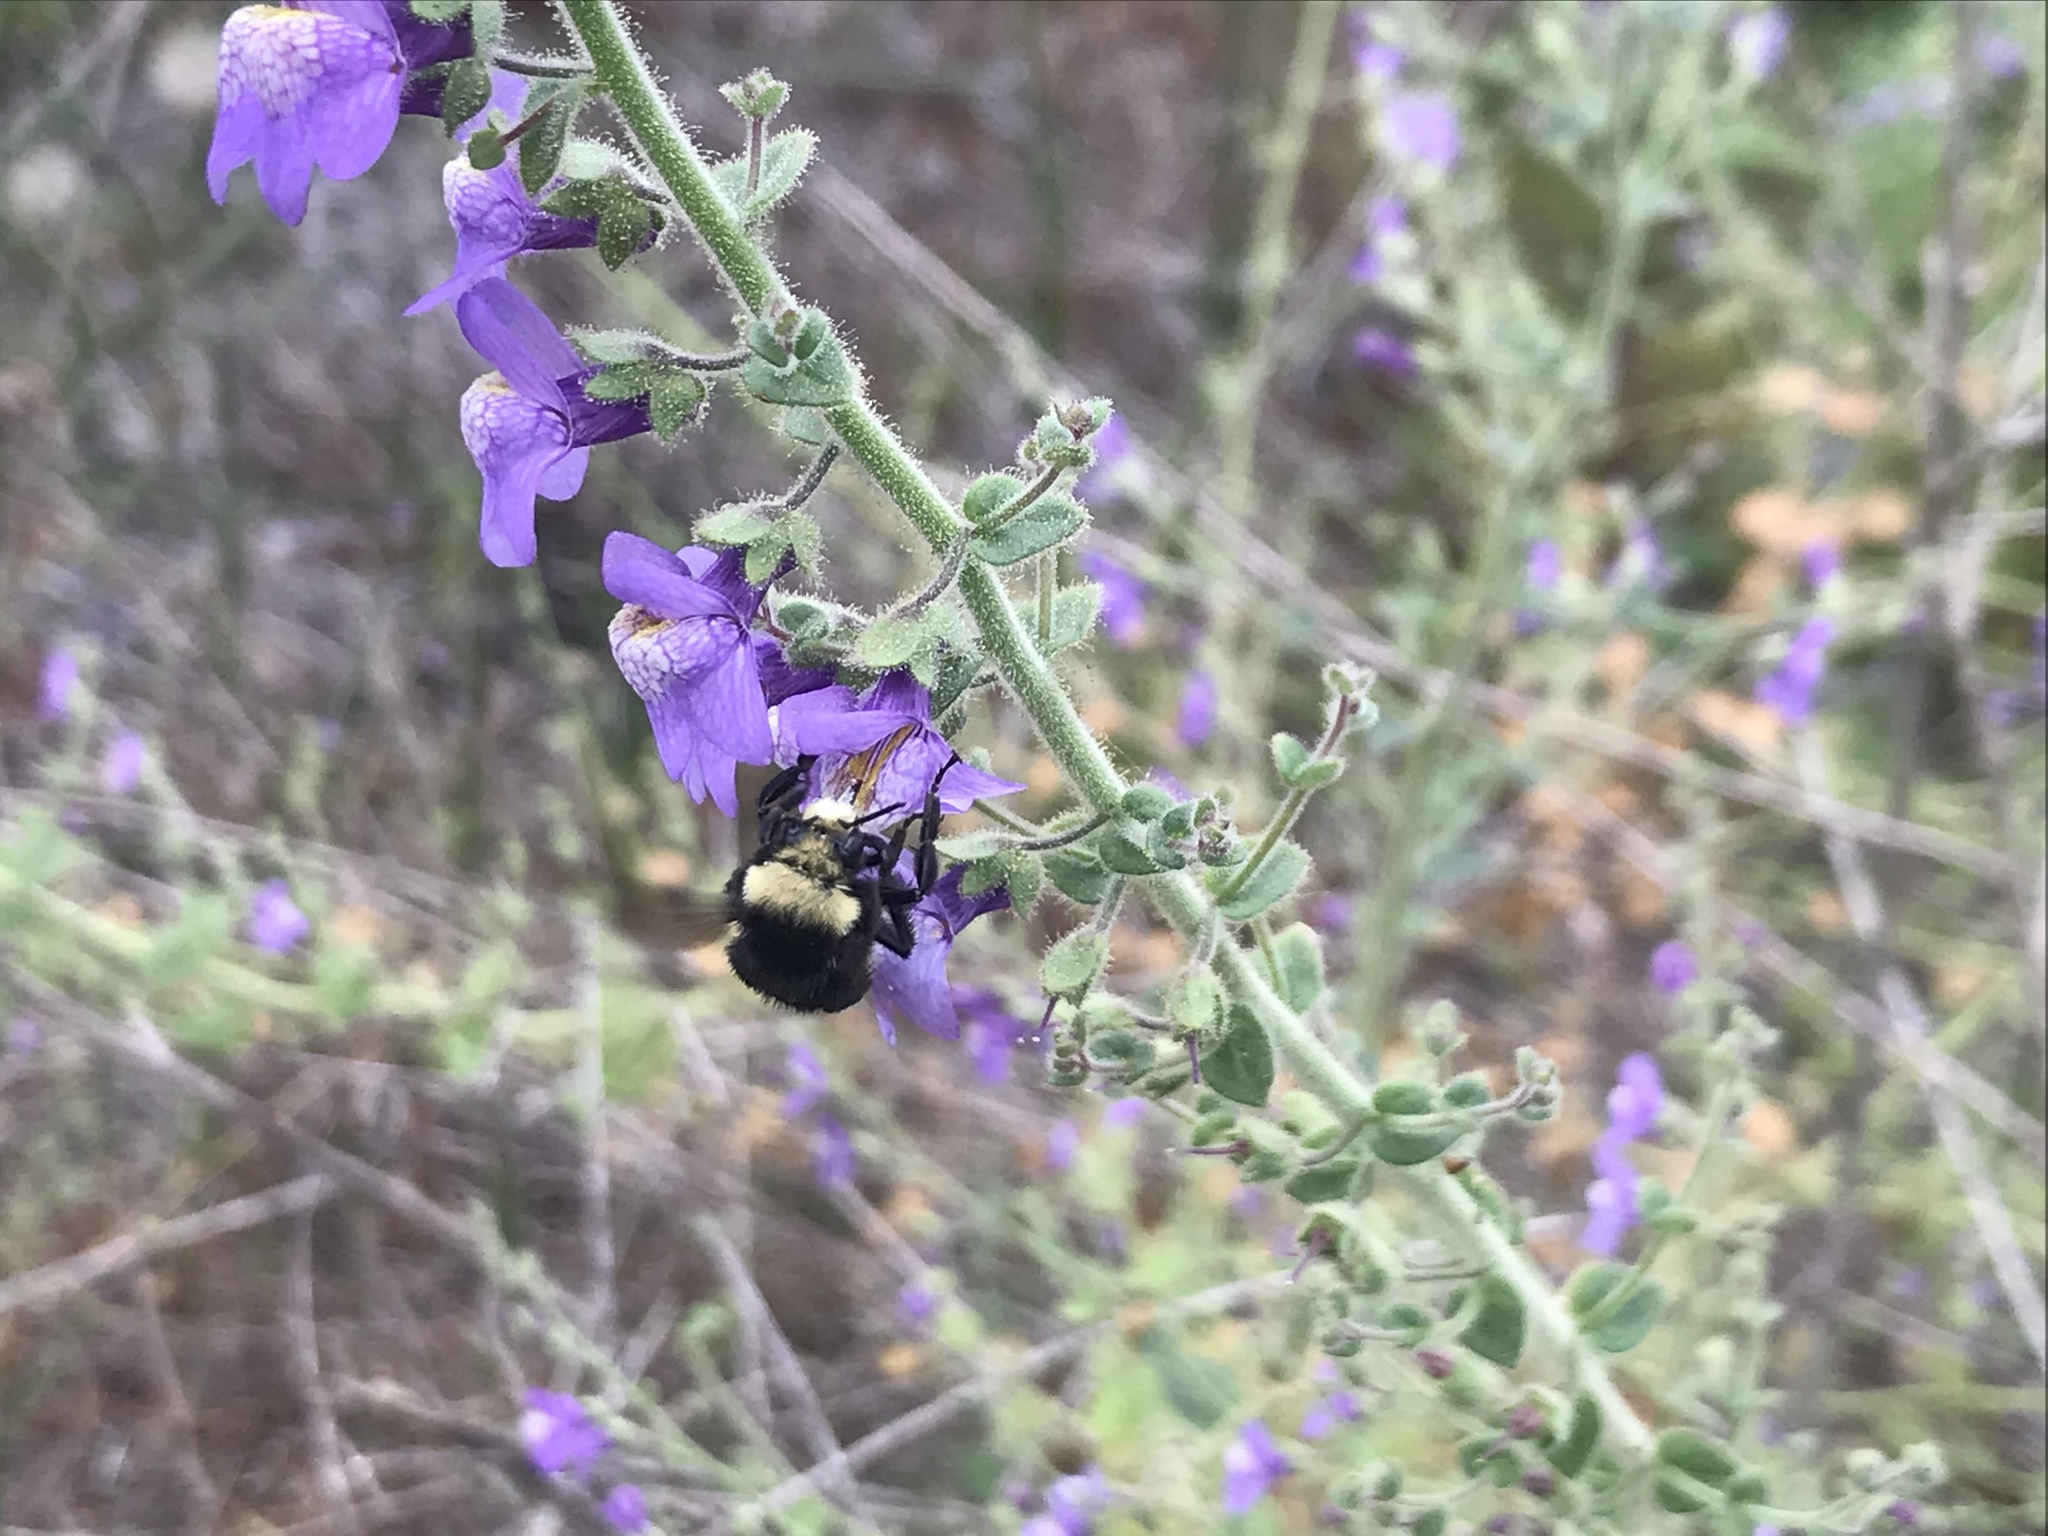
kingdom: Animalia
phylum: Arthropoda
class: Insecta
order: Hymenoptera
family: Apidae
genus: Bombus
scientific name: Bombus vosnesenskii
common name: Vosnesensky bumble bee
